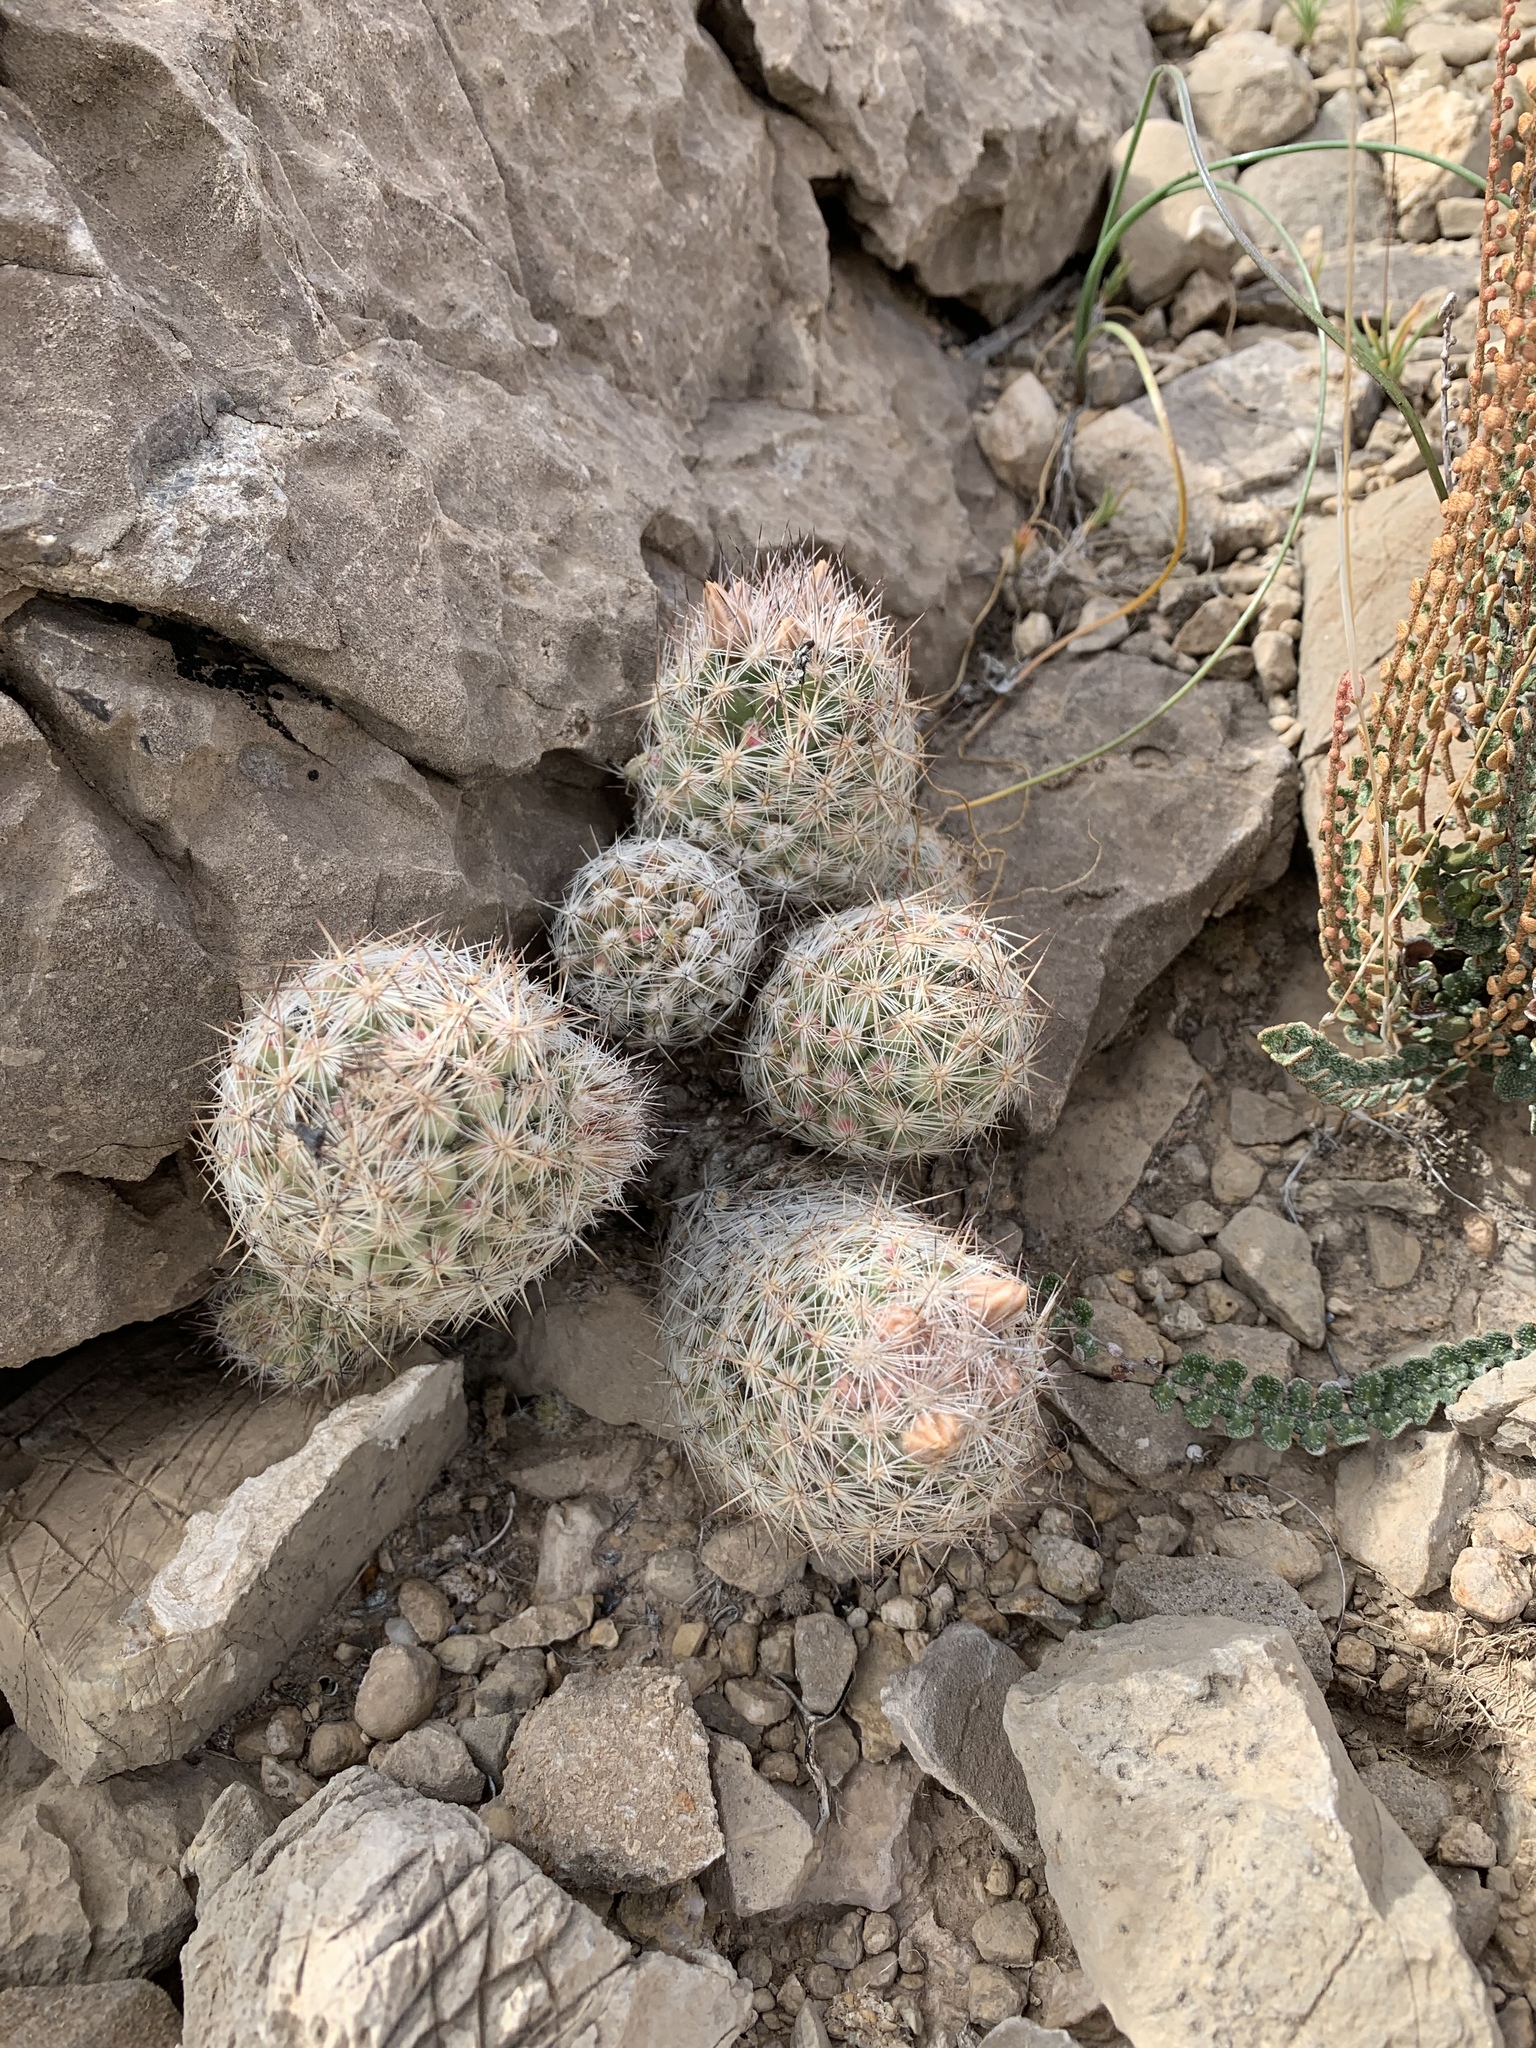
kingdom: Plantae
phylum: Tracheophyta
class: Magnoliopsida
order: Caryophyllales
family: Cactaceae
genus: Pelecyphora
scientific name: Pelecyphora tuberculosa
